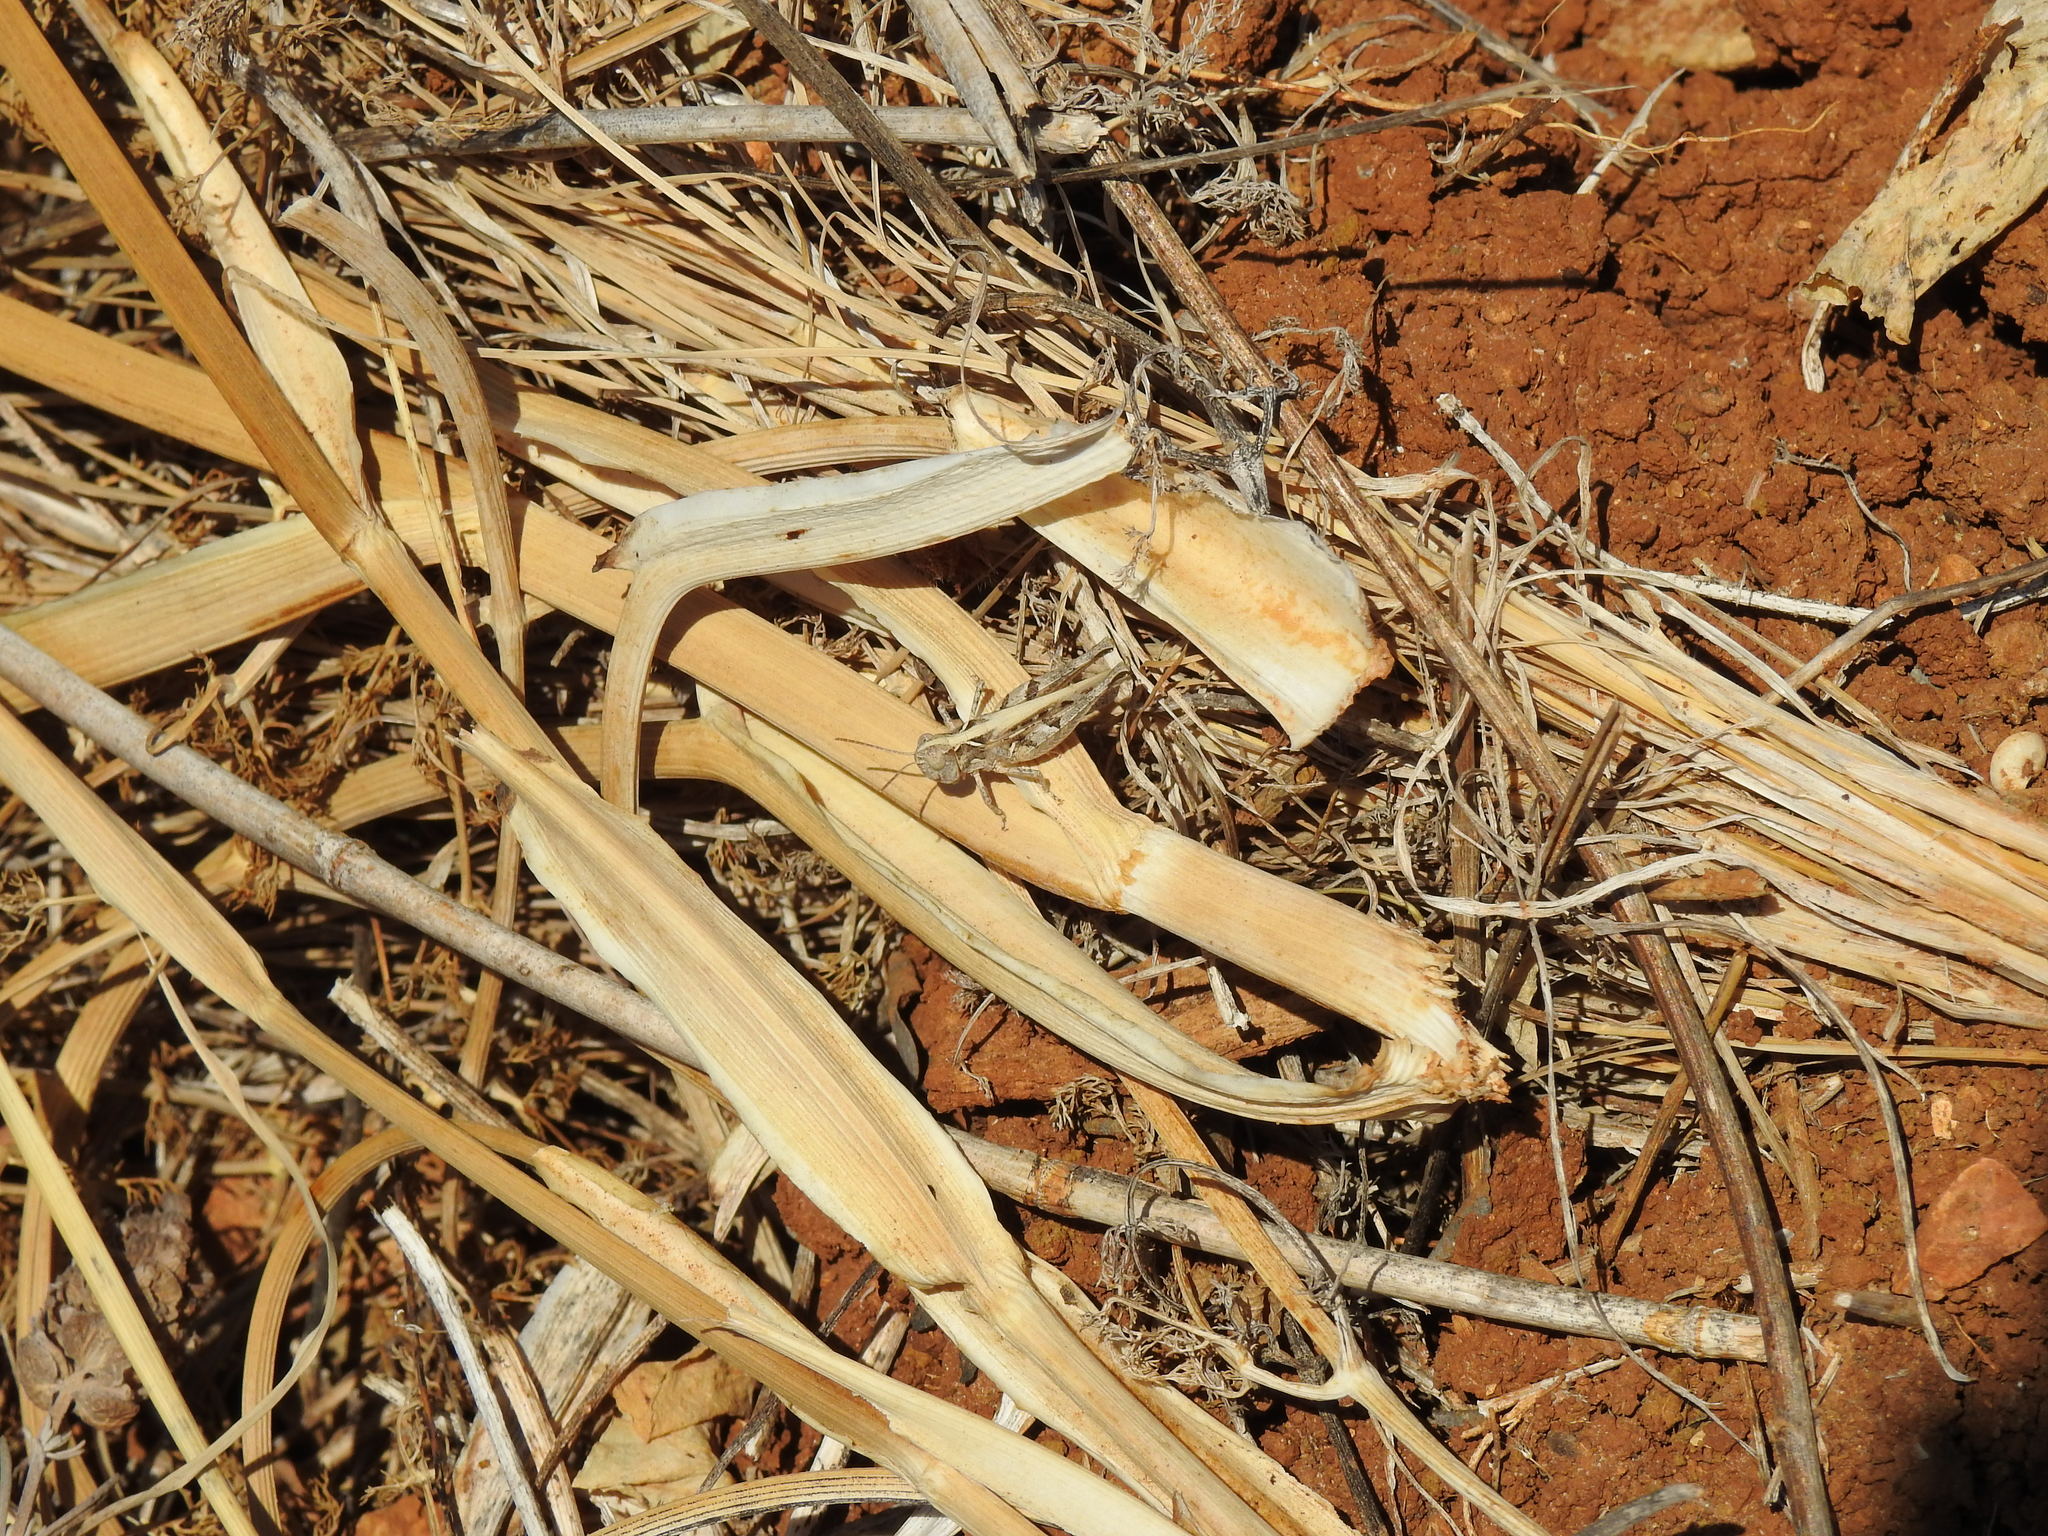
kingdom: Animalia
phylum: Arthropoda
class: Insecta
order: Orthoptera
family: Acrididae
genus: Dociostaurus
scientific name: Dociostaurus
